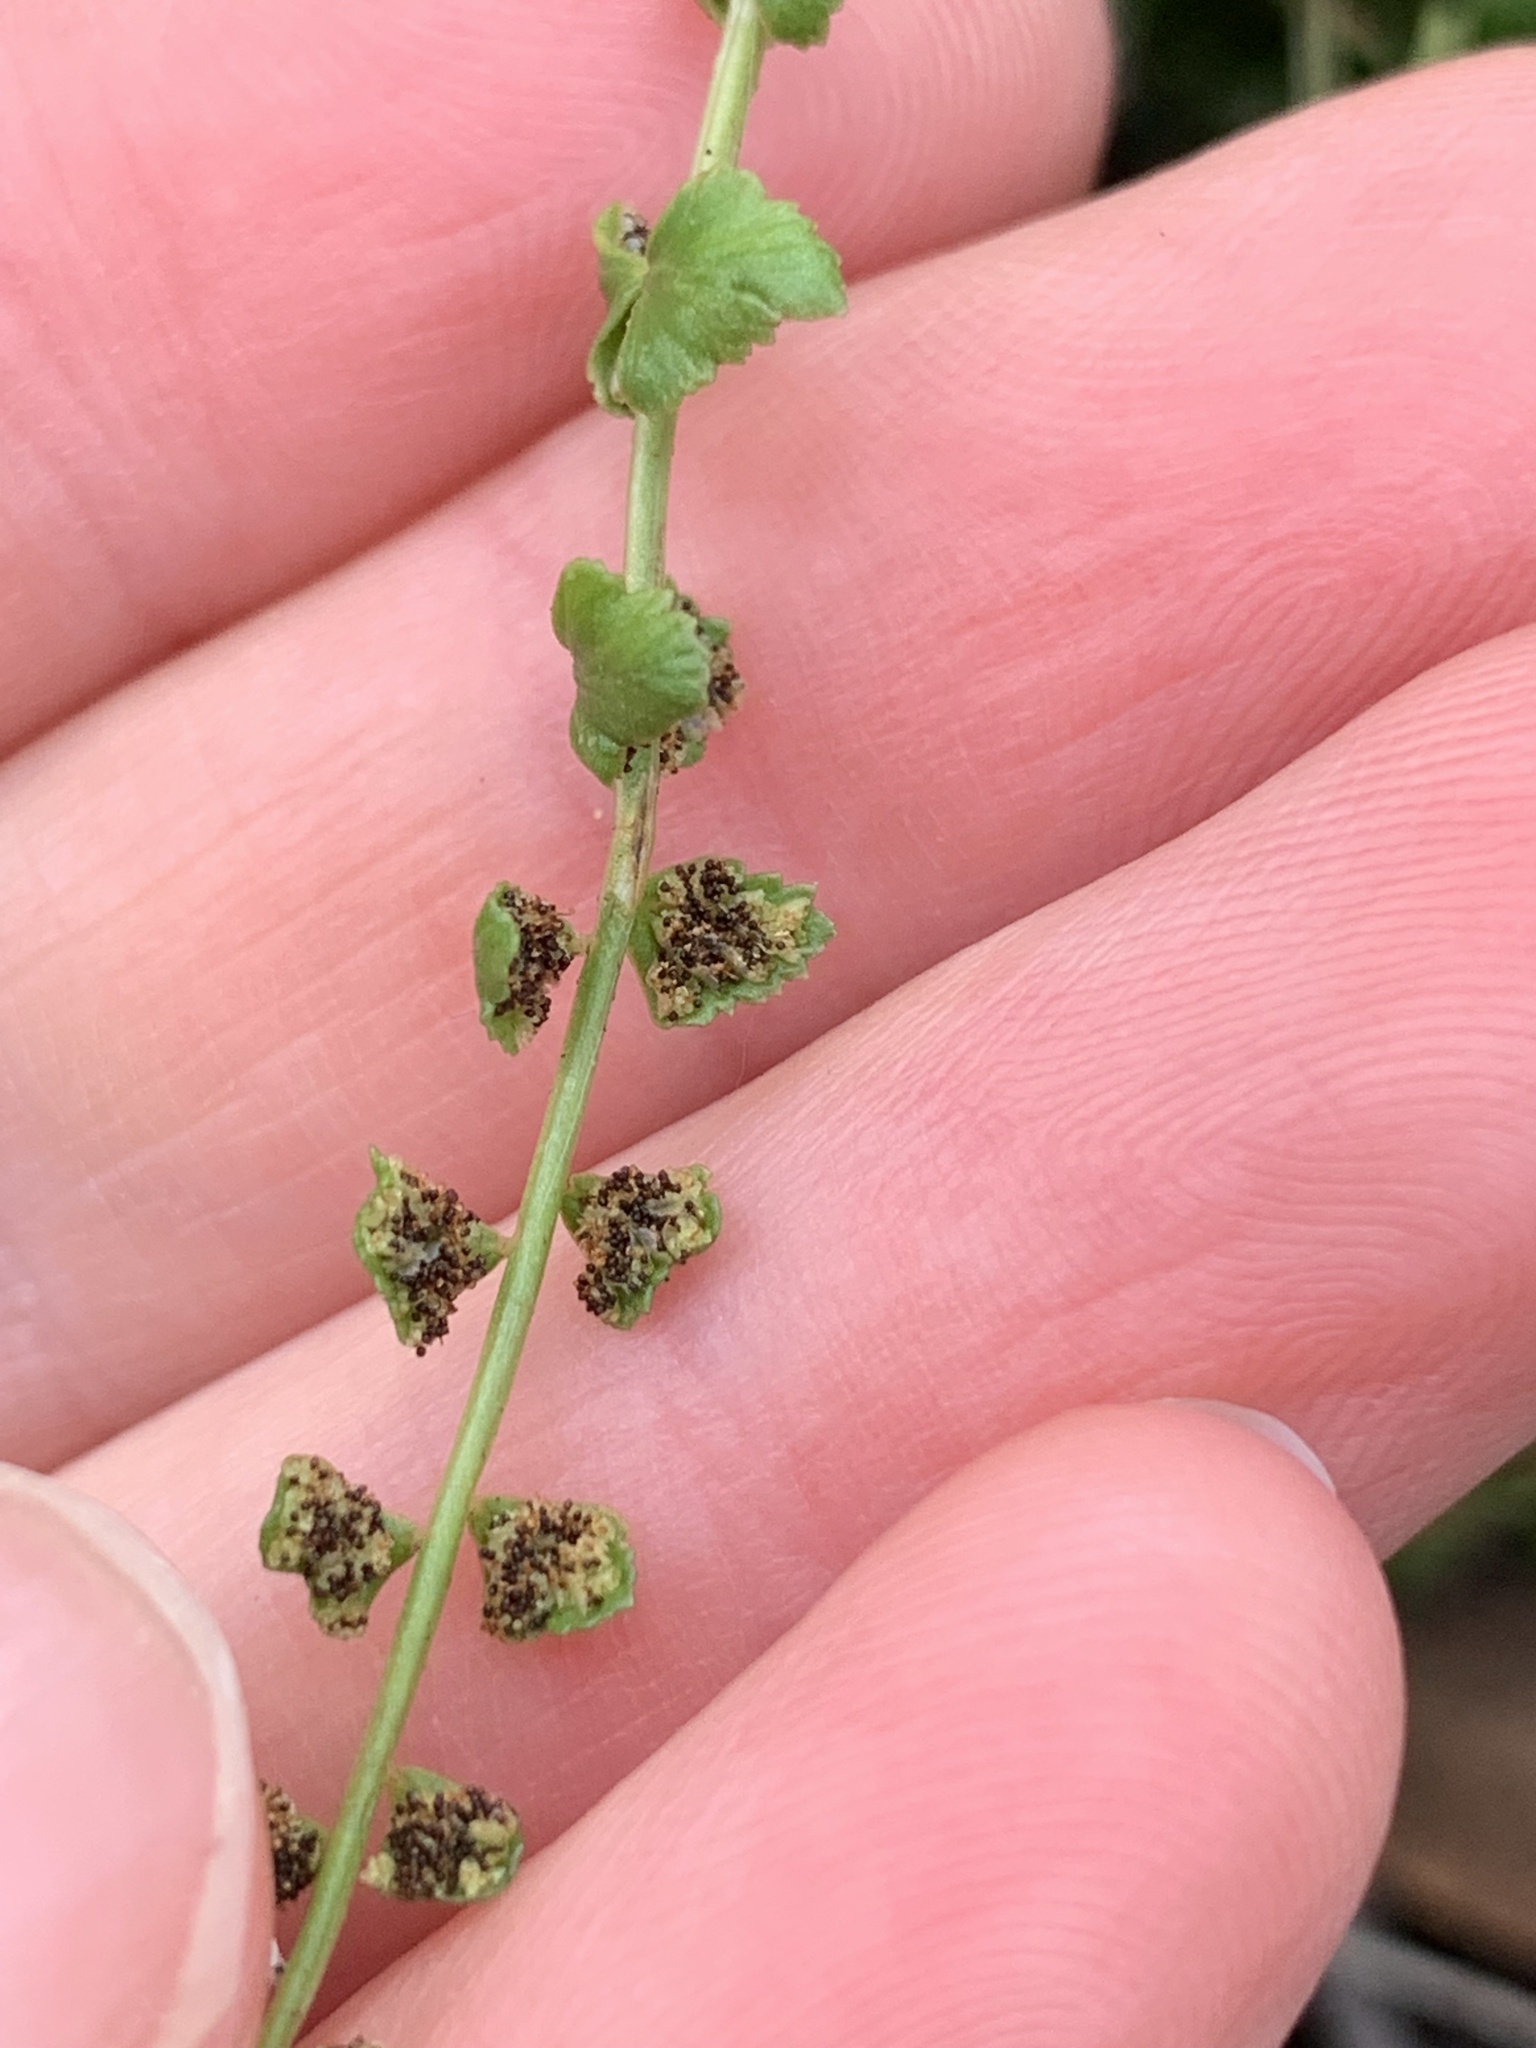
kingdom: Plantae
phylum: Tracheophyta
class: Polypodiopsida
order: Polypodiales
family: Aspleniaceae
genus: Asplenium
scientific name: Asplenium flabellifolium
